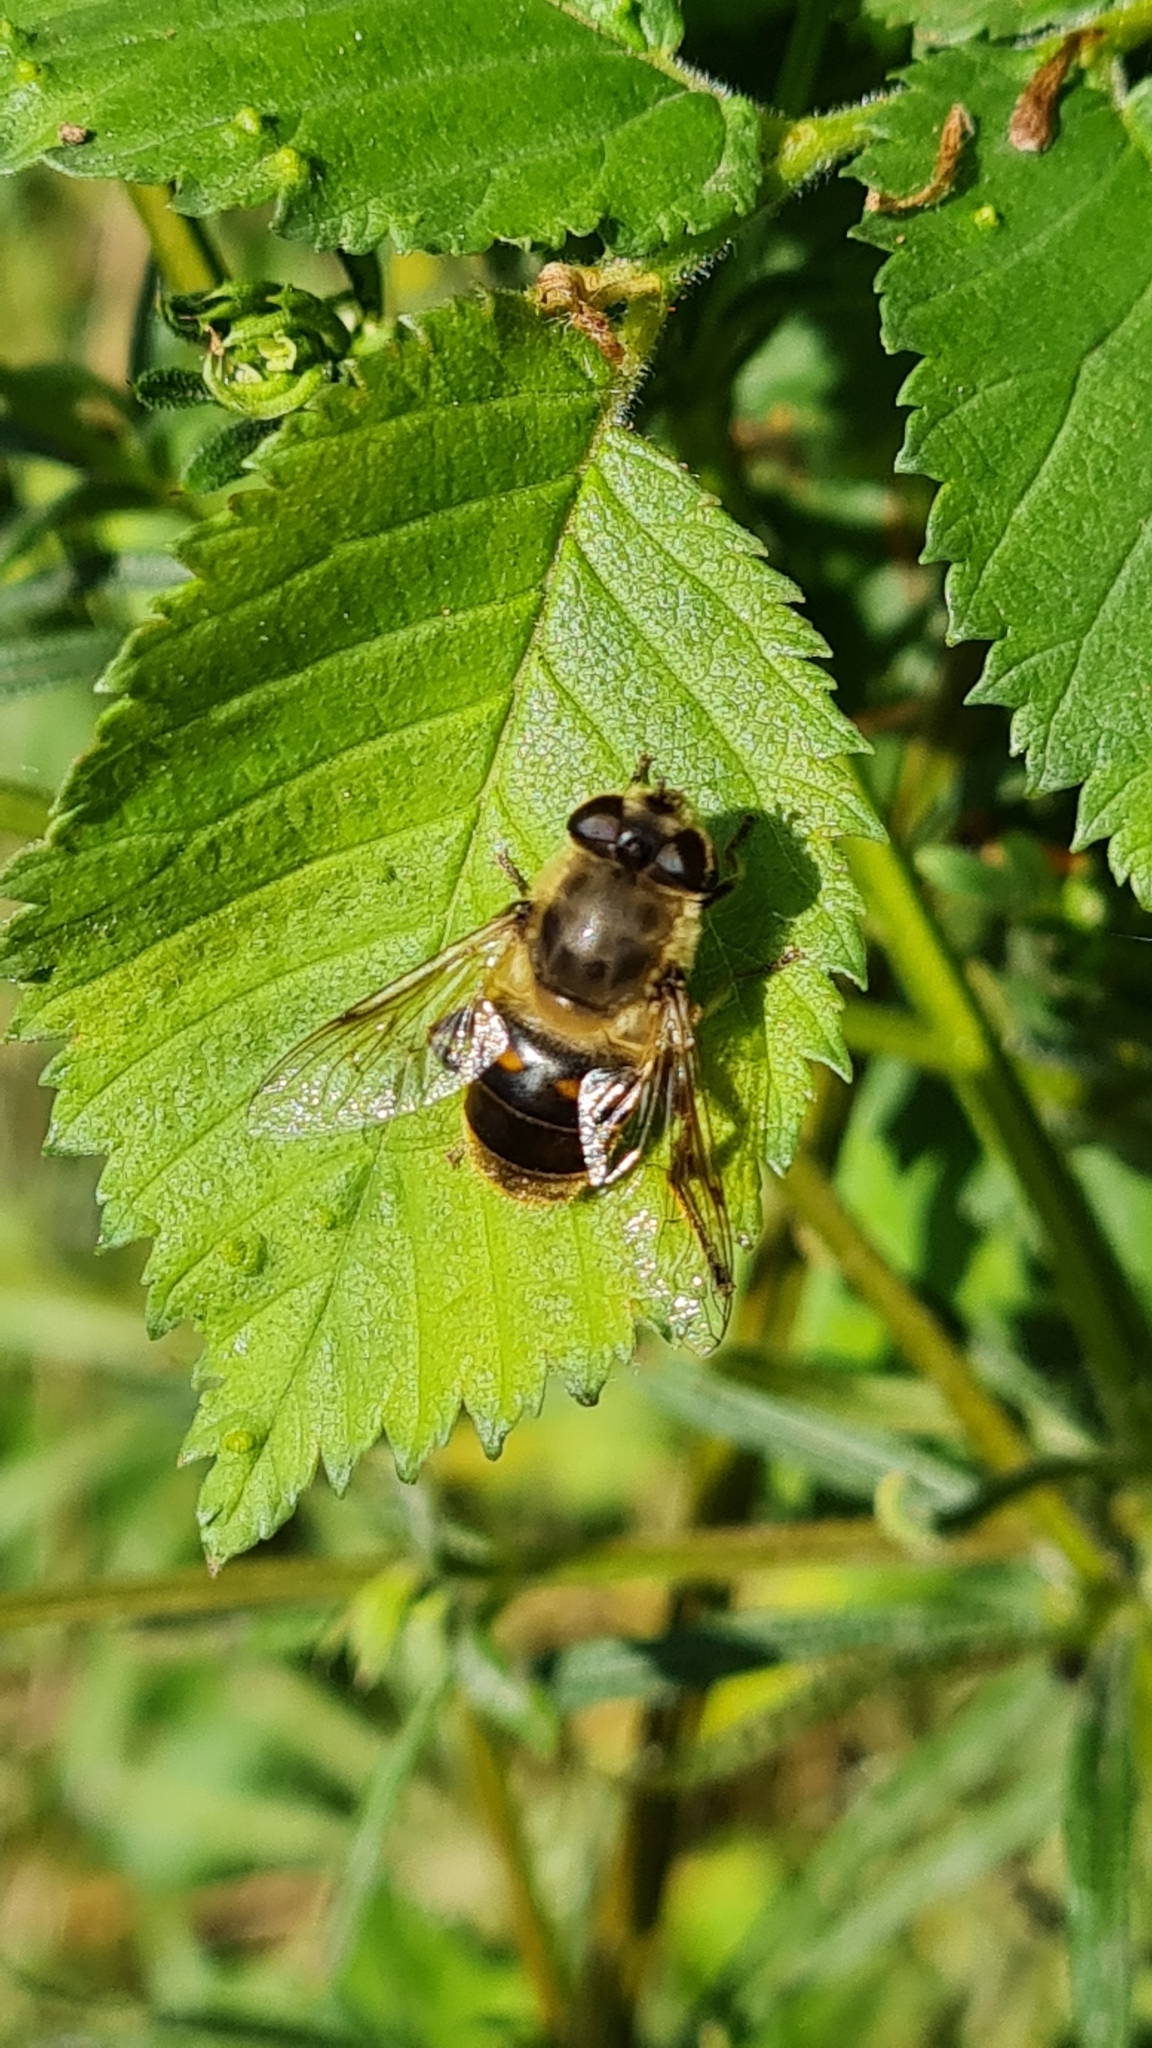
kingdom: Animalia
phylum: Arthropoda
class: Insecta
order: Diptera
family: Syrphidae
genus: Eristalis
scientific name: Eristalis tenax
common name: Drone fly
